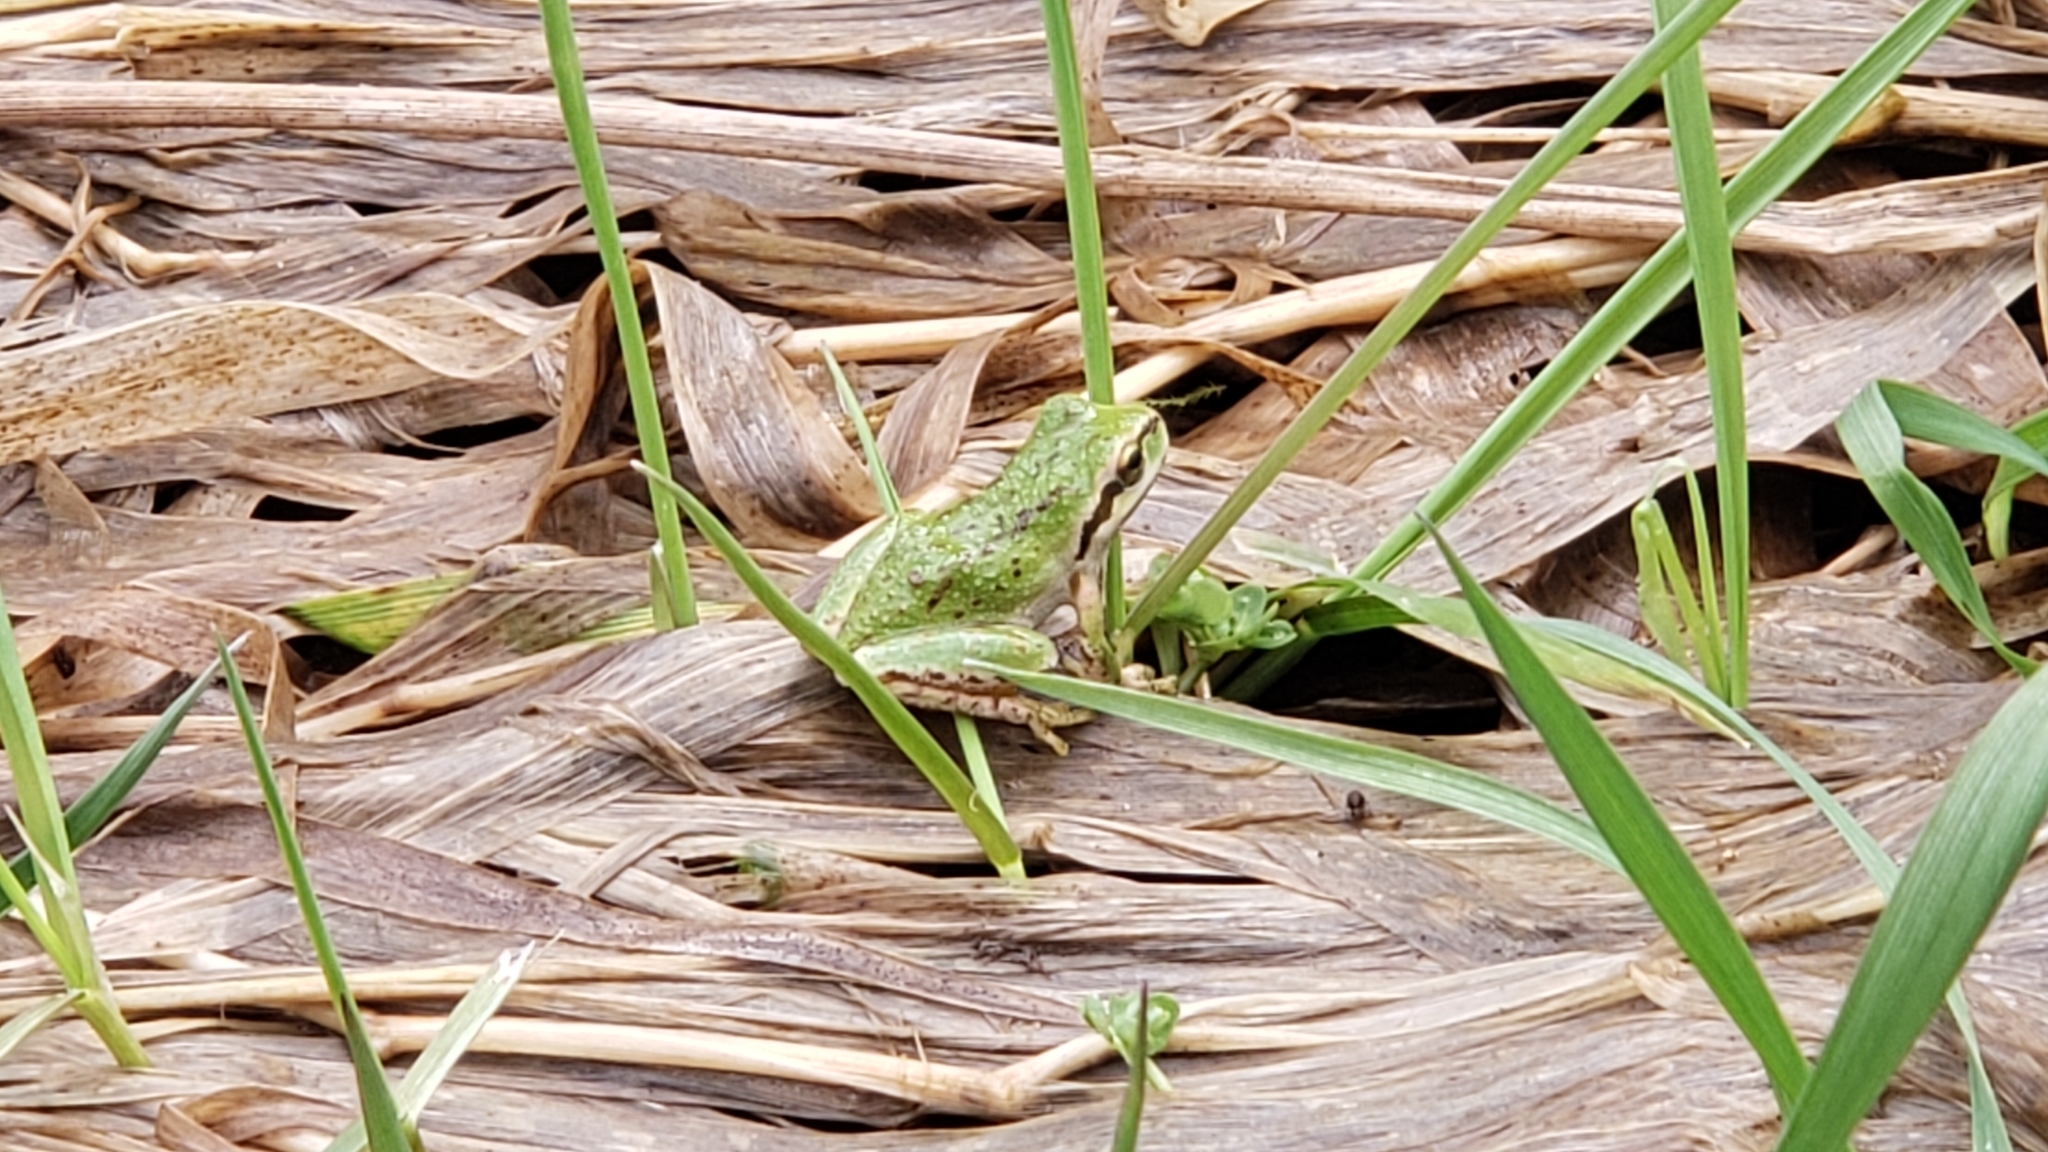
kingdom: Animalia
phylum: Chordata
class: Amphibia
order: Anura
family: Hylidae
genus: Pseudacris
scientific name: Pseudacris regilla
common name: Pacific chorus frog
